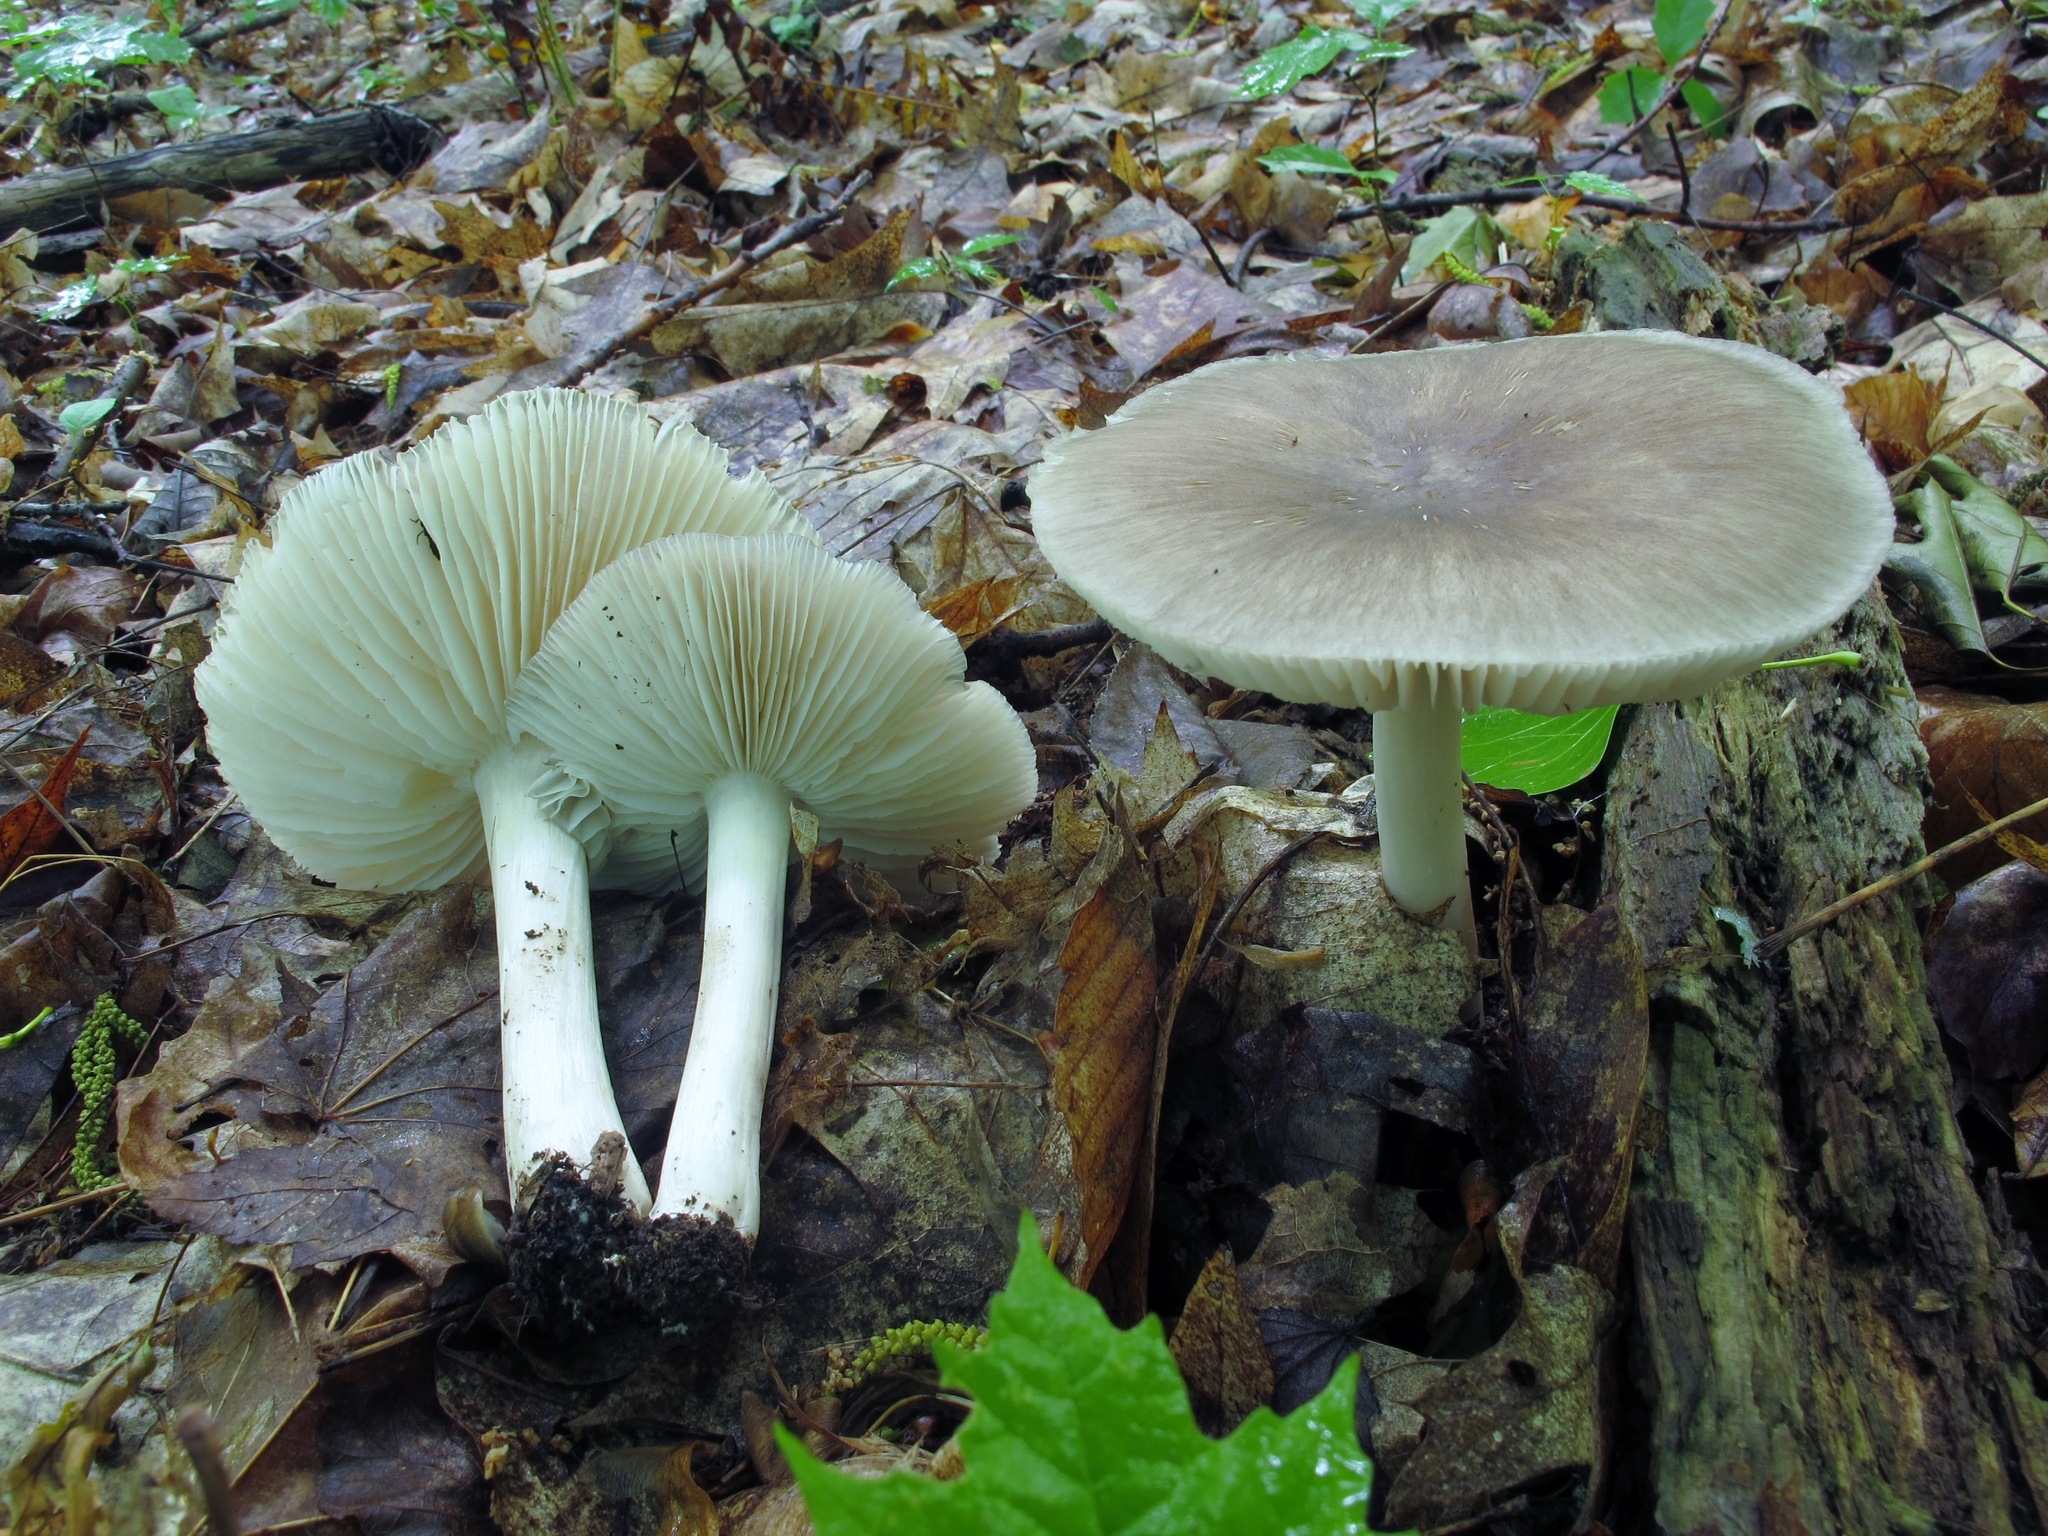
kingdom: Fungi
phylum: Basidiomycota
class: Agaricomycetes
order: Agaricales
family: Tricholomataceae
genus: Megacollybia
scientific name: Megacollybia rodmanii
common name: Eastern american platterful mushroom
